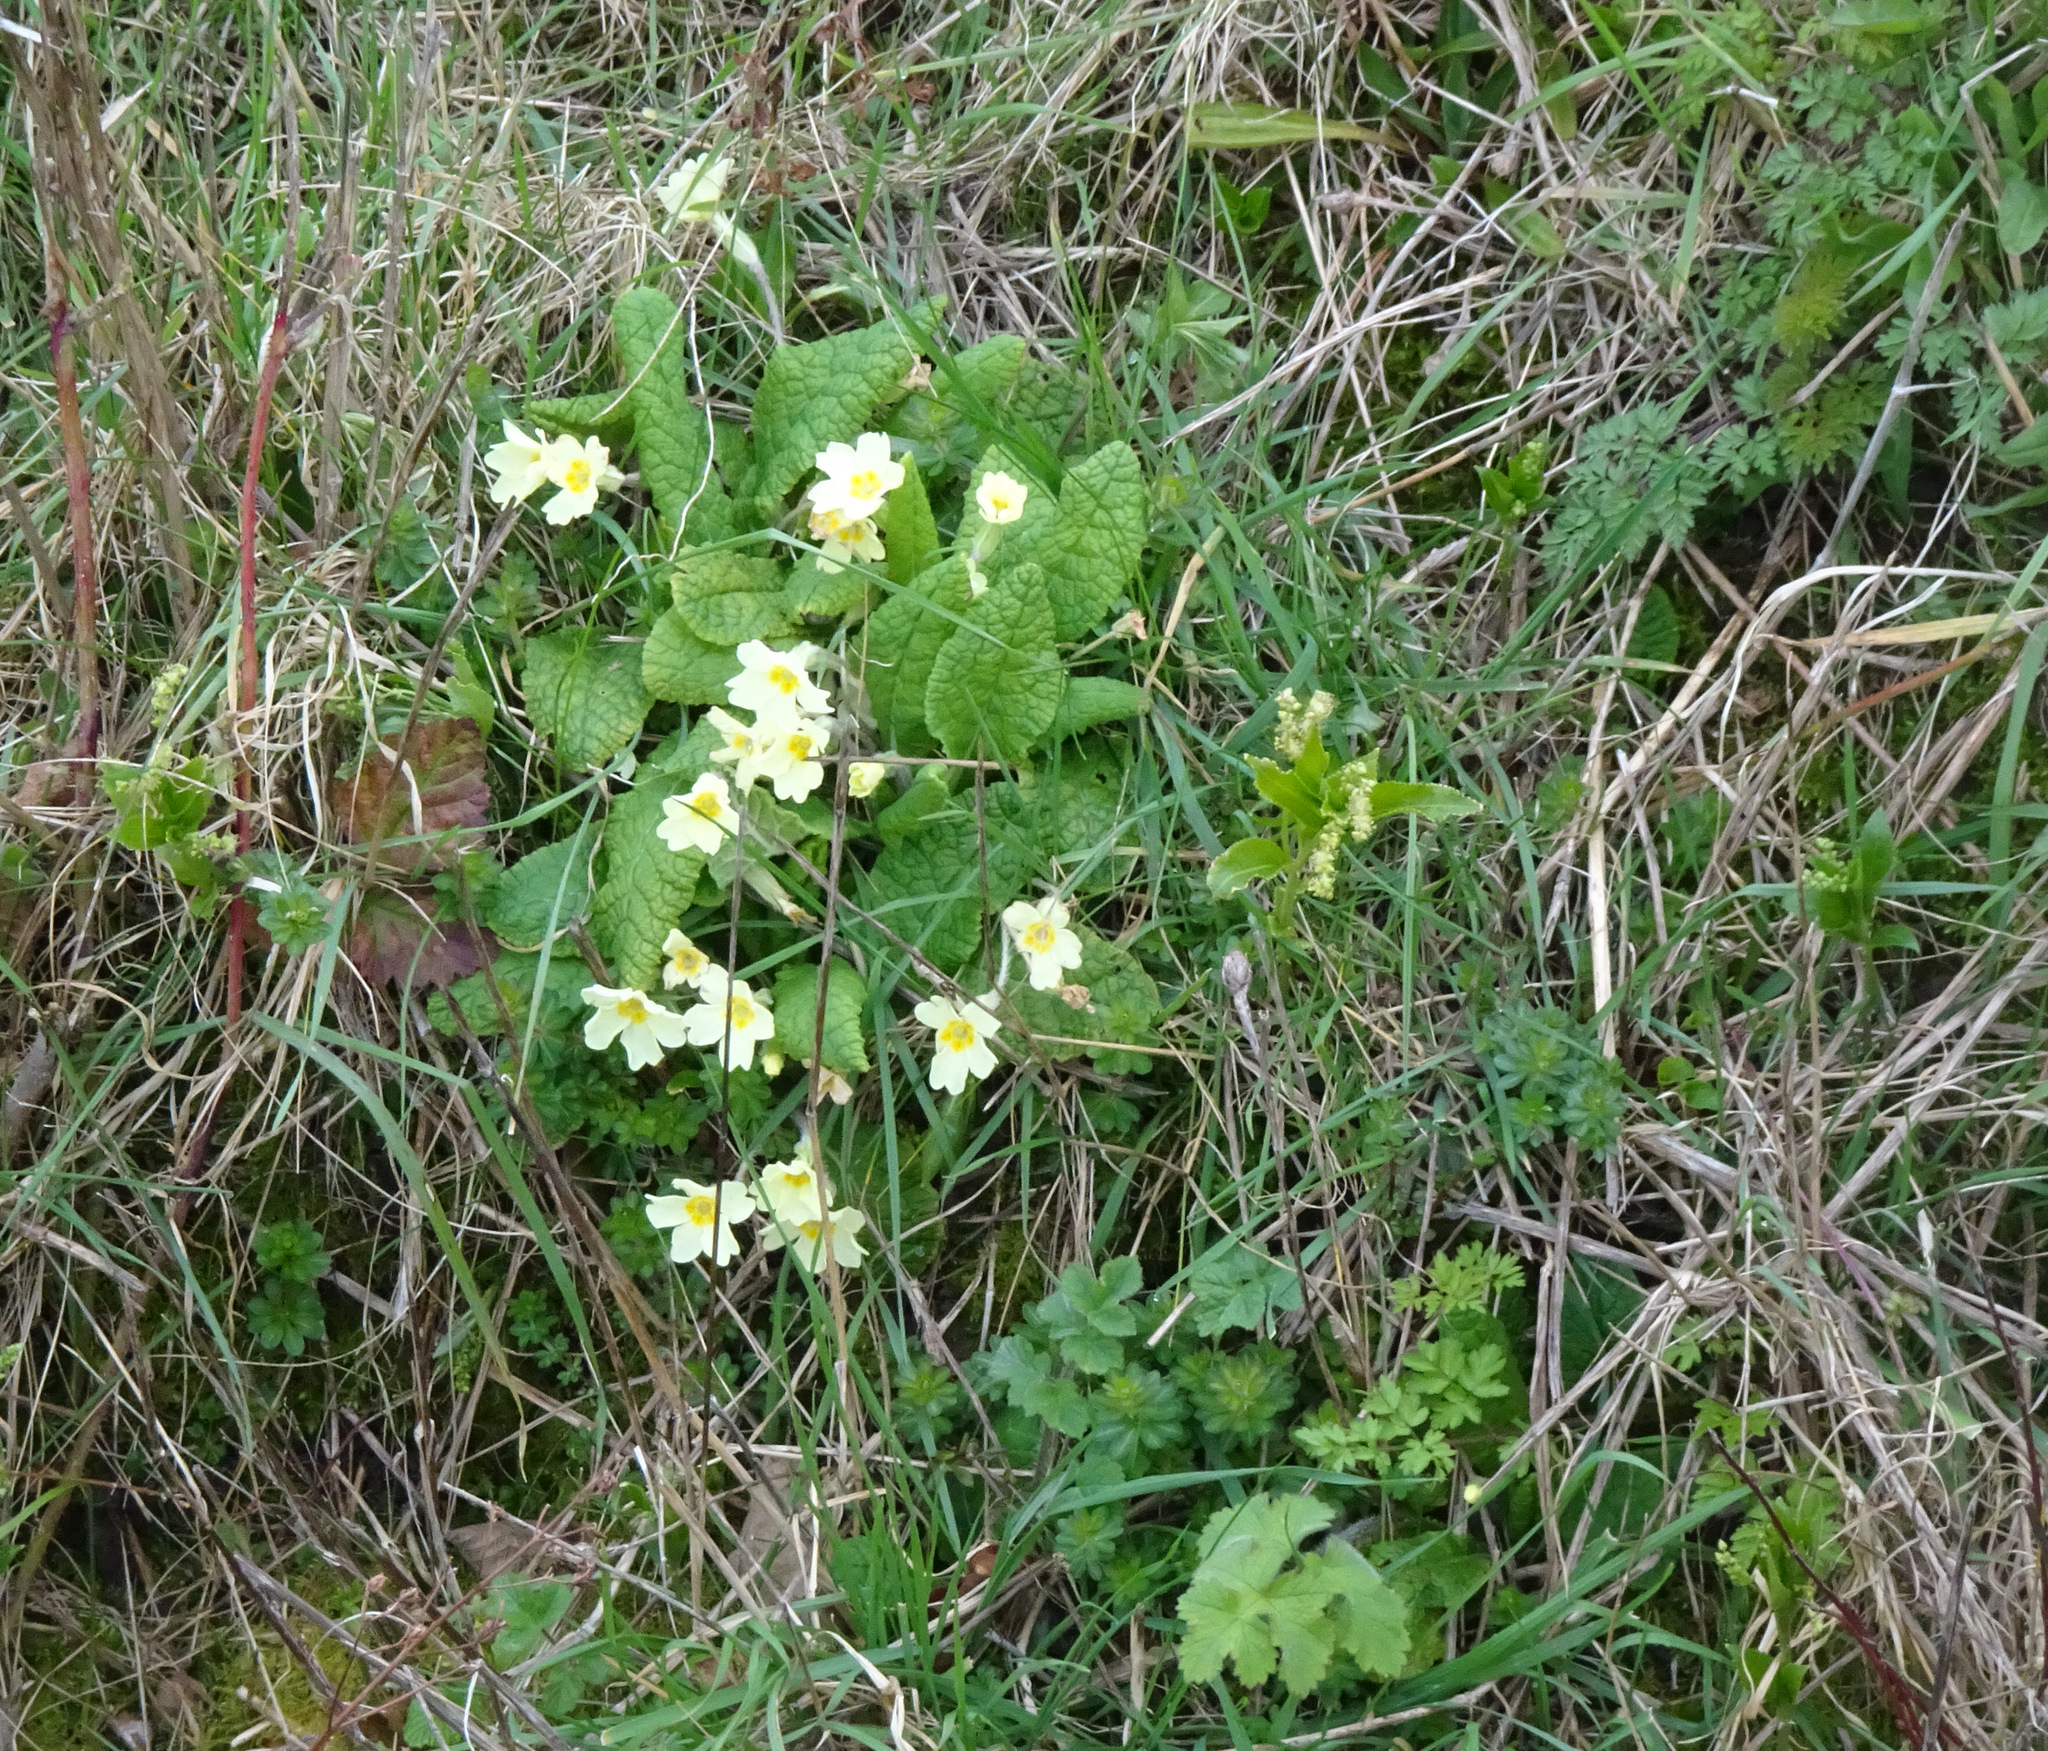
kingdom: Plantae
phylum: Tracheophyta
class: Magnoliopsida
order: Ericales
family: Primulaceae
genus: Primula
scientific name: Primula vulgaris
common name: Primrose
